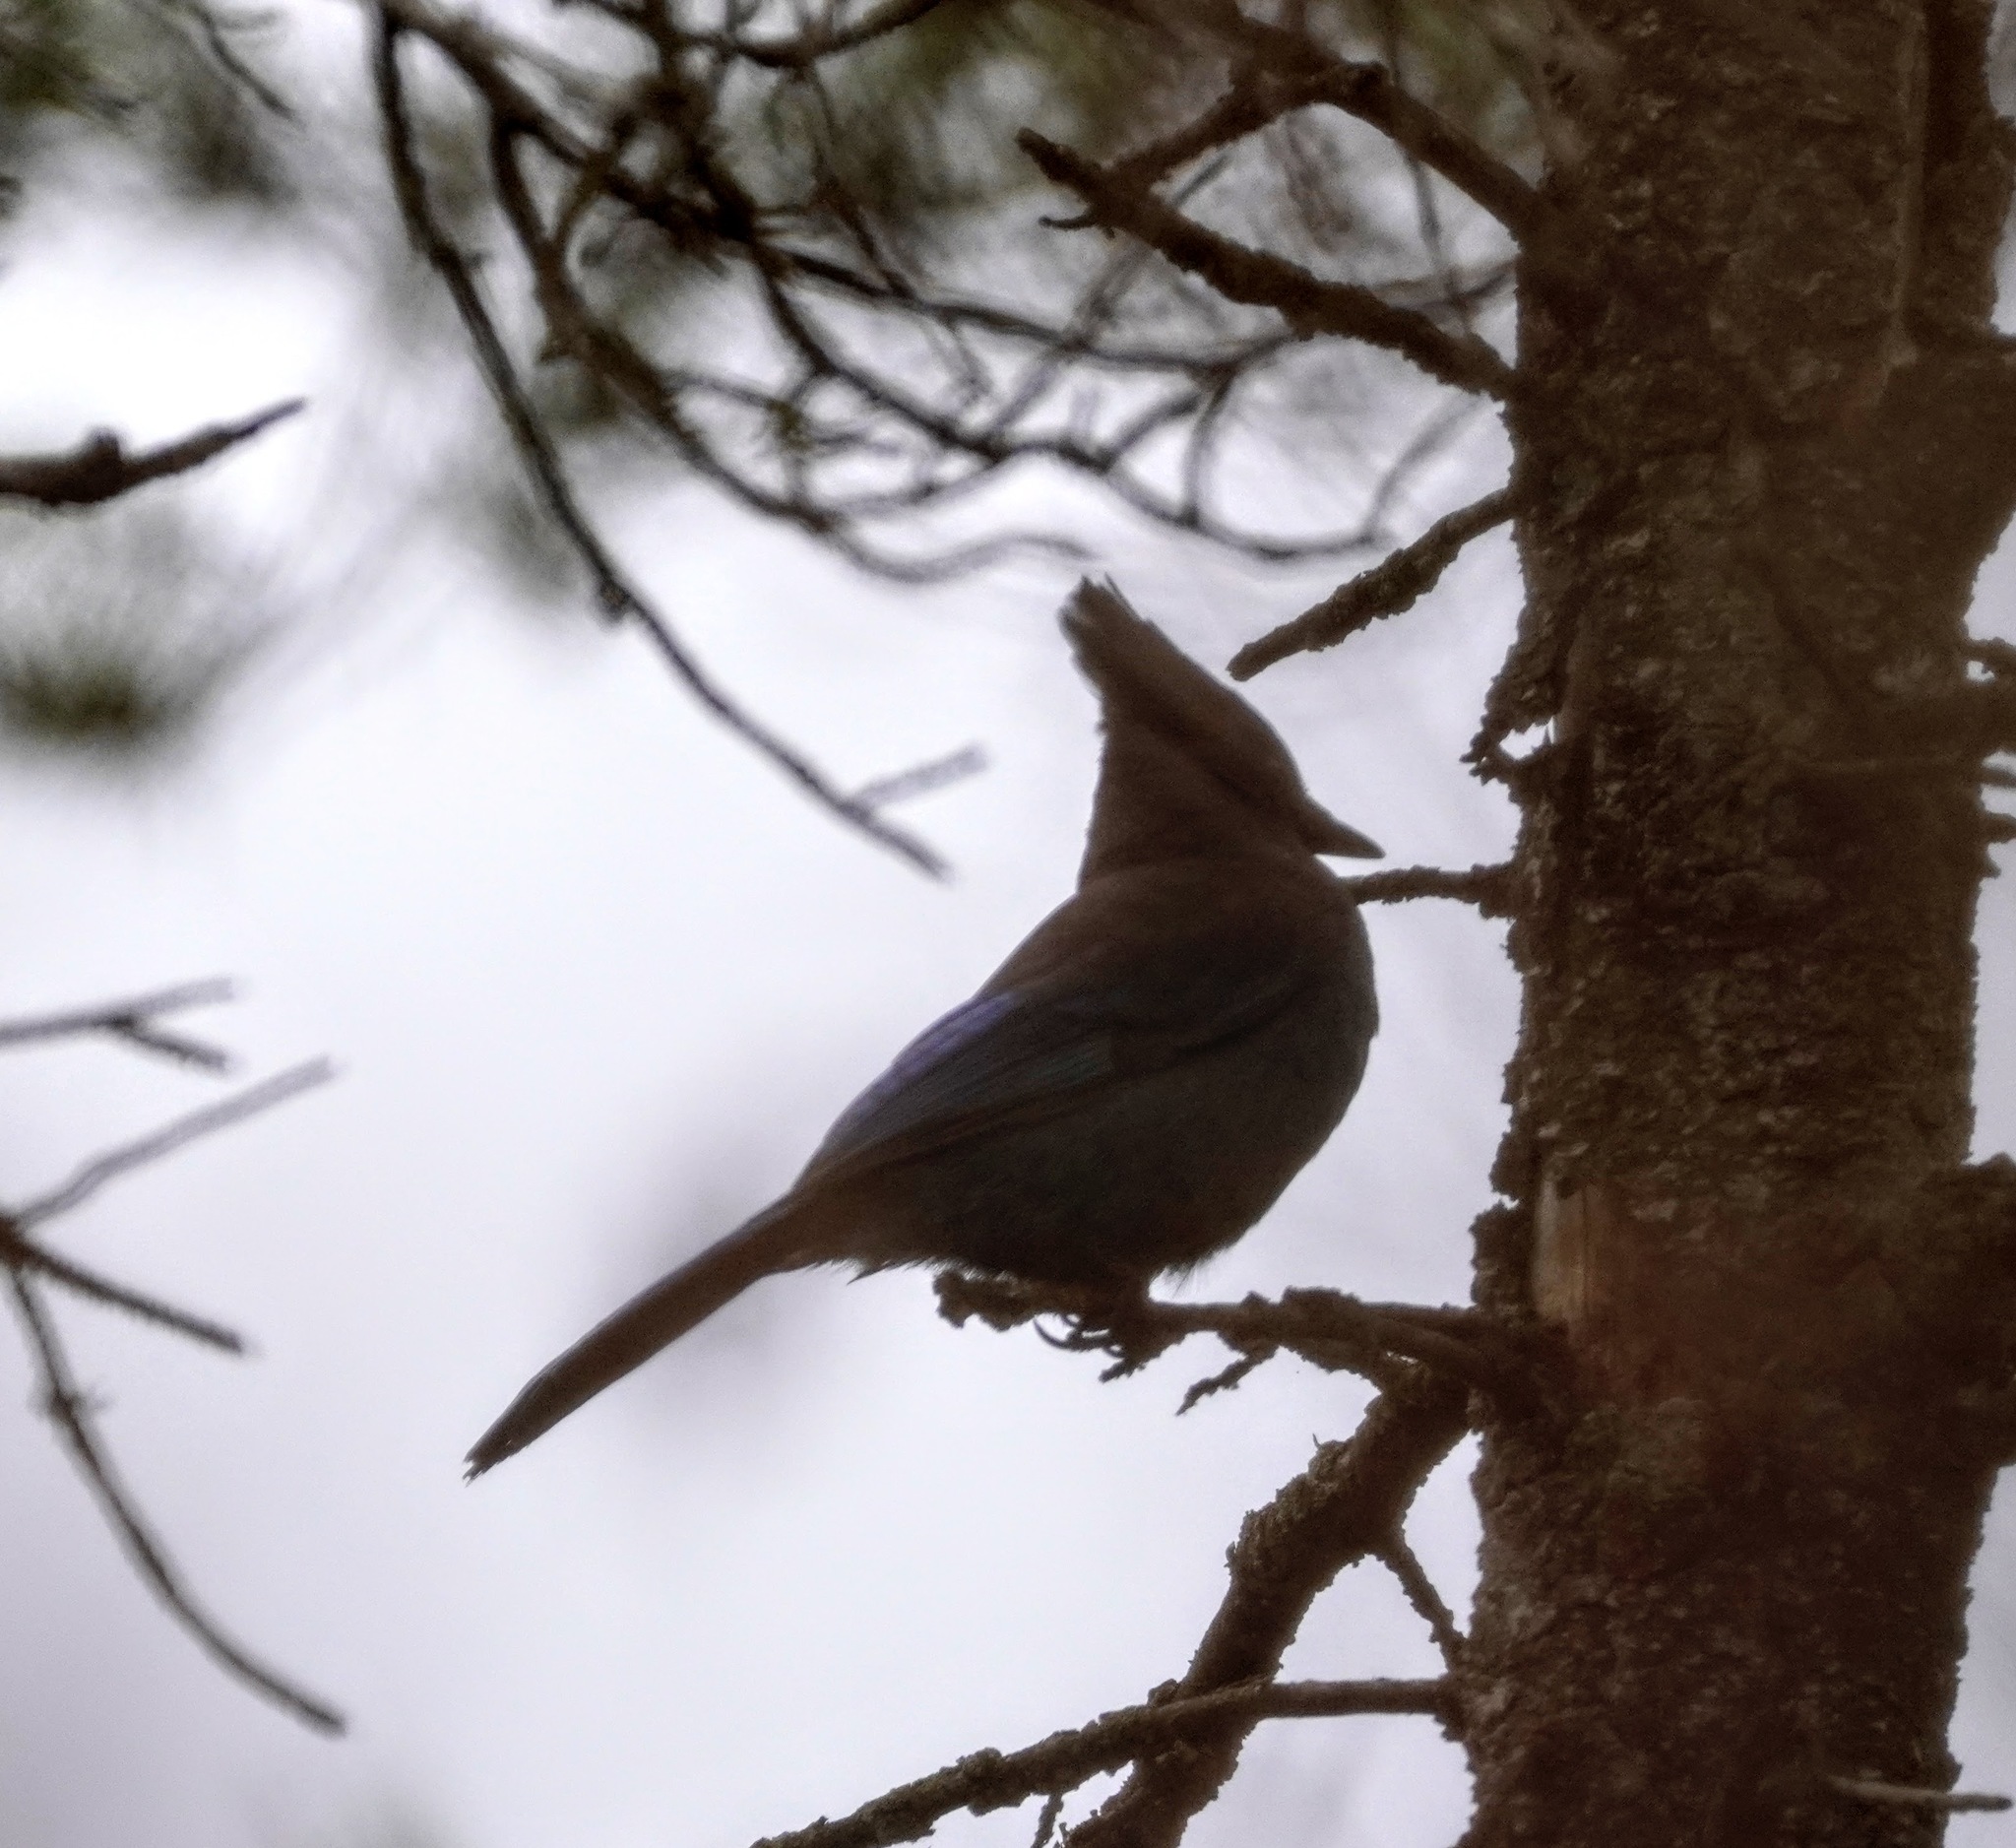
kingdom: Animalia
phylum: Chordata
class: Aves
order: Passeriformes
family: Corvidae
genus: Cyanocitta
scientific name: Cyanocitta stelleri
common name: Steller's jay
